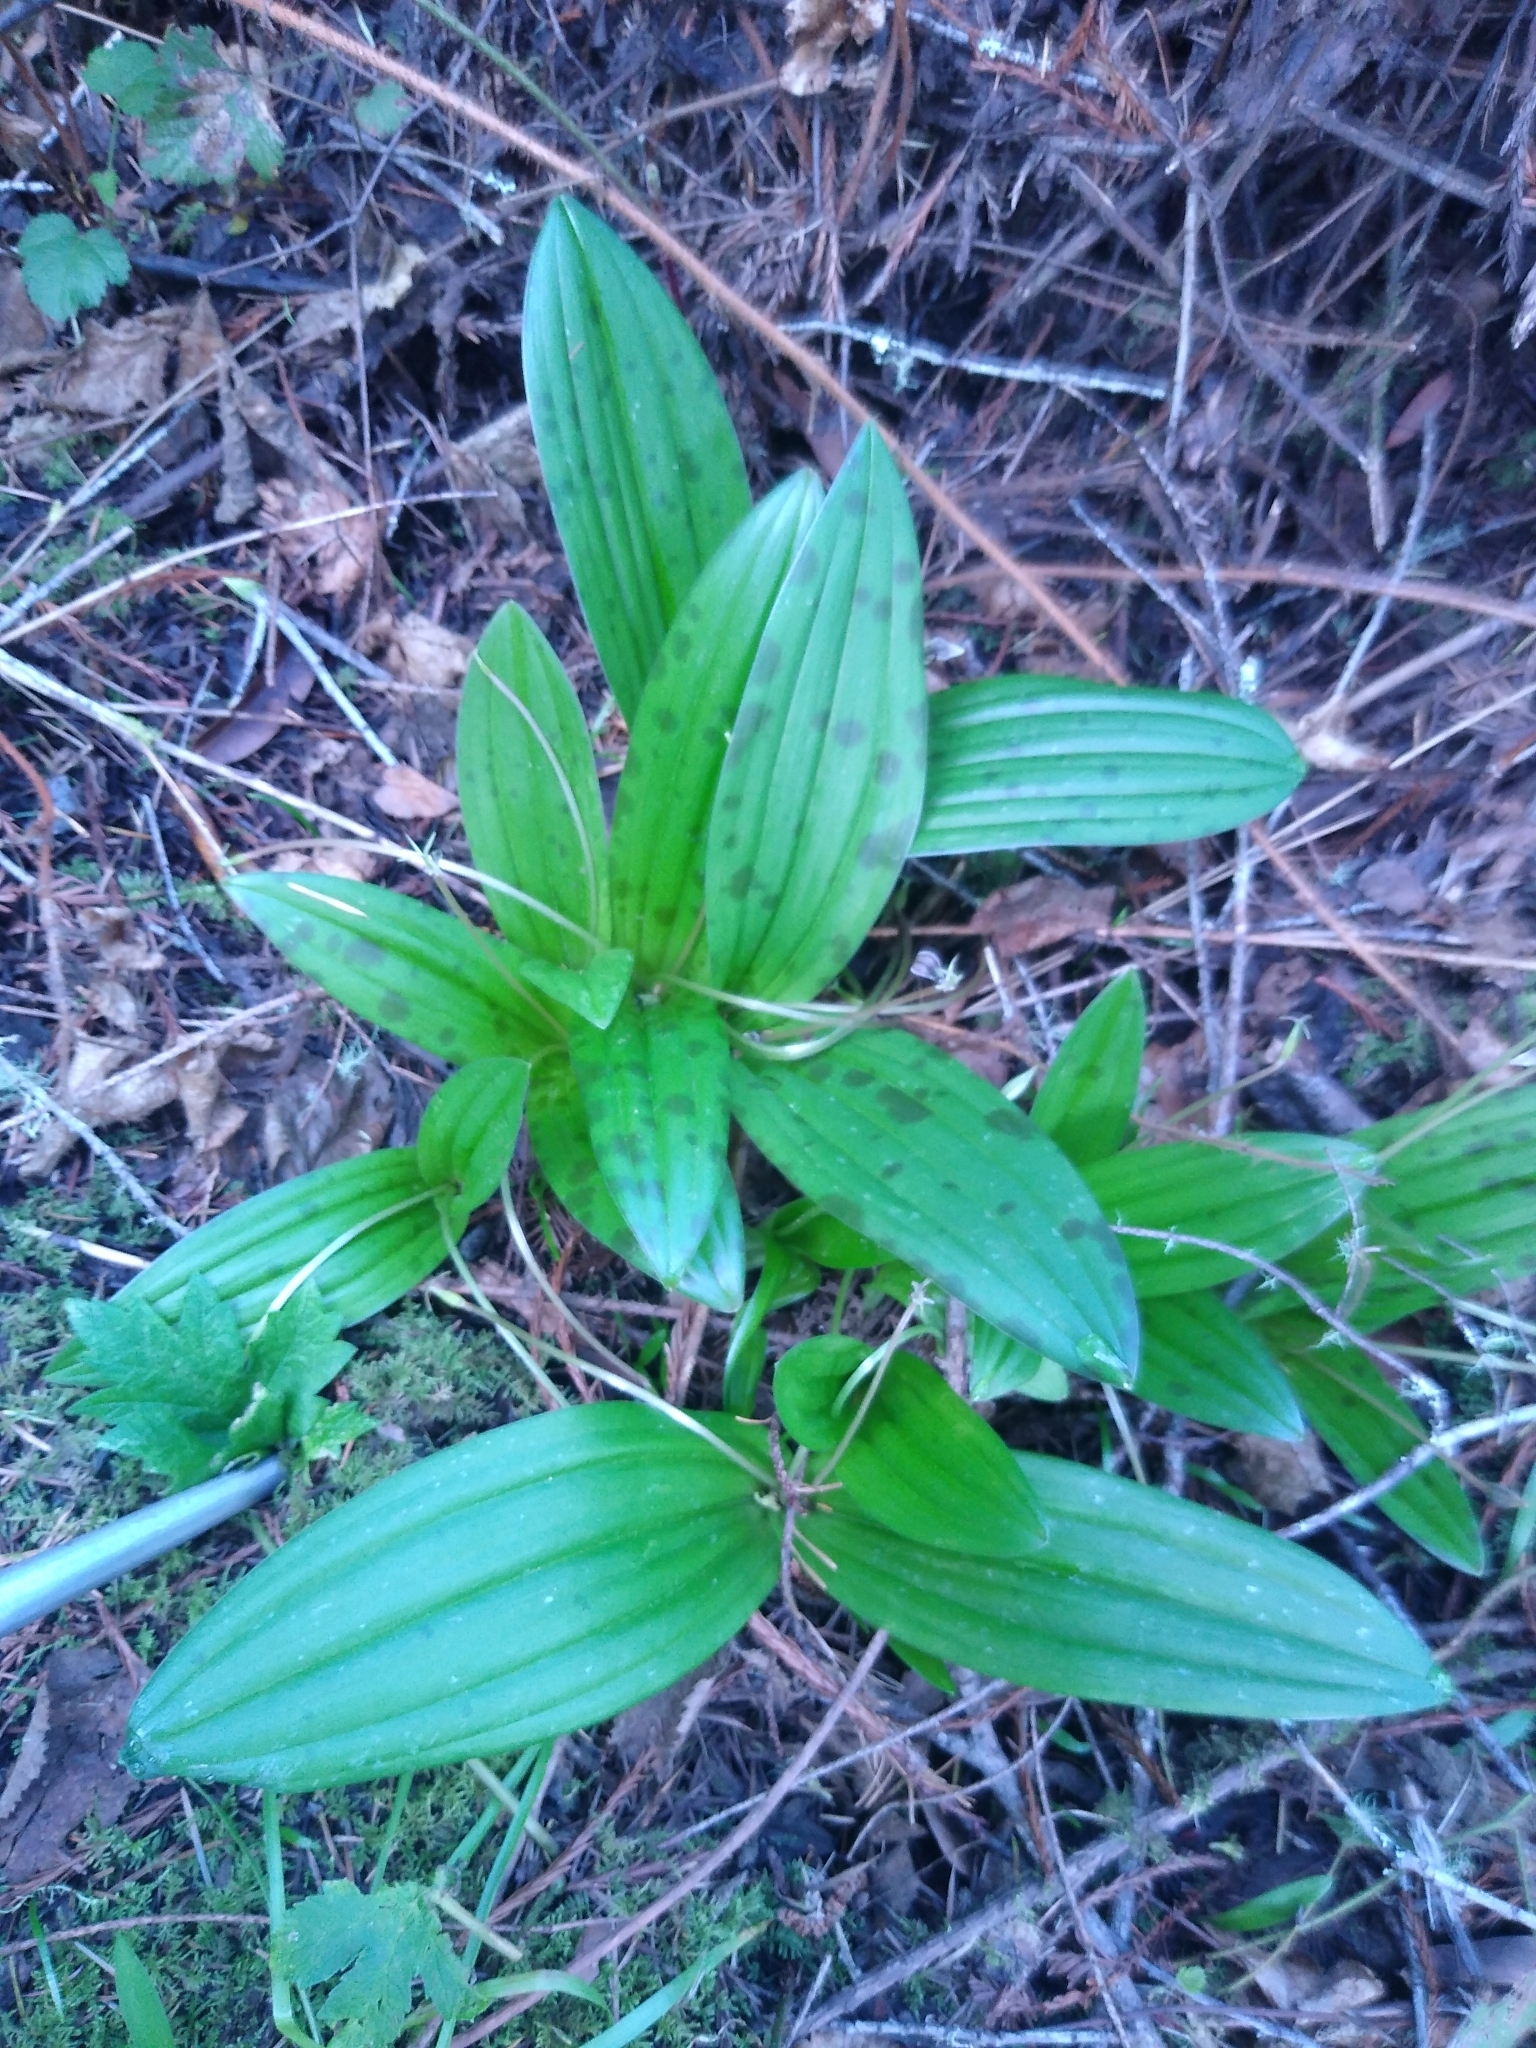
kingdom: Plantae
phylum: Tracheophyta
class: Liliopsida
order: Liliales
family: Liliaceae
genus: Scoliopus
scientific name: Scoliopus bigelovii
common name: Foetid adder's-tongue
